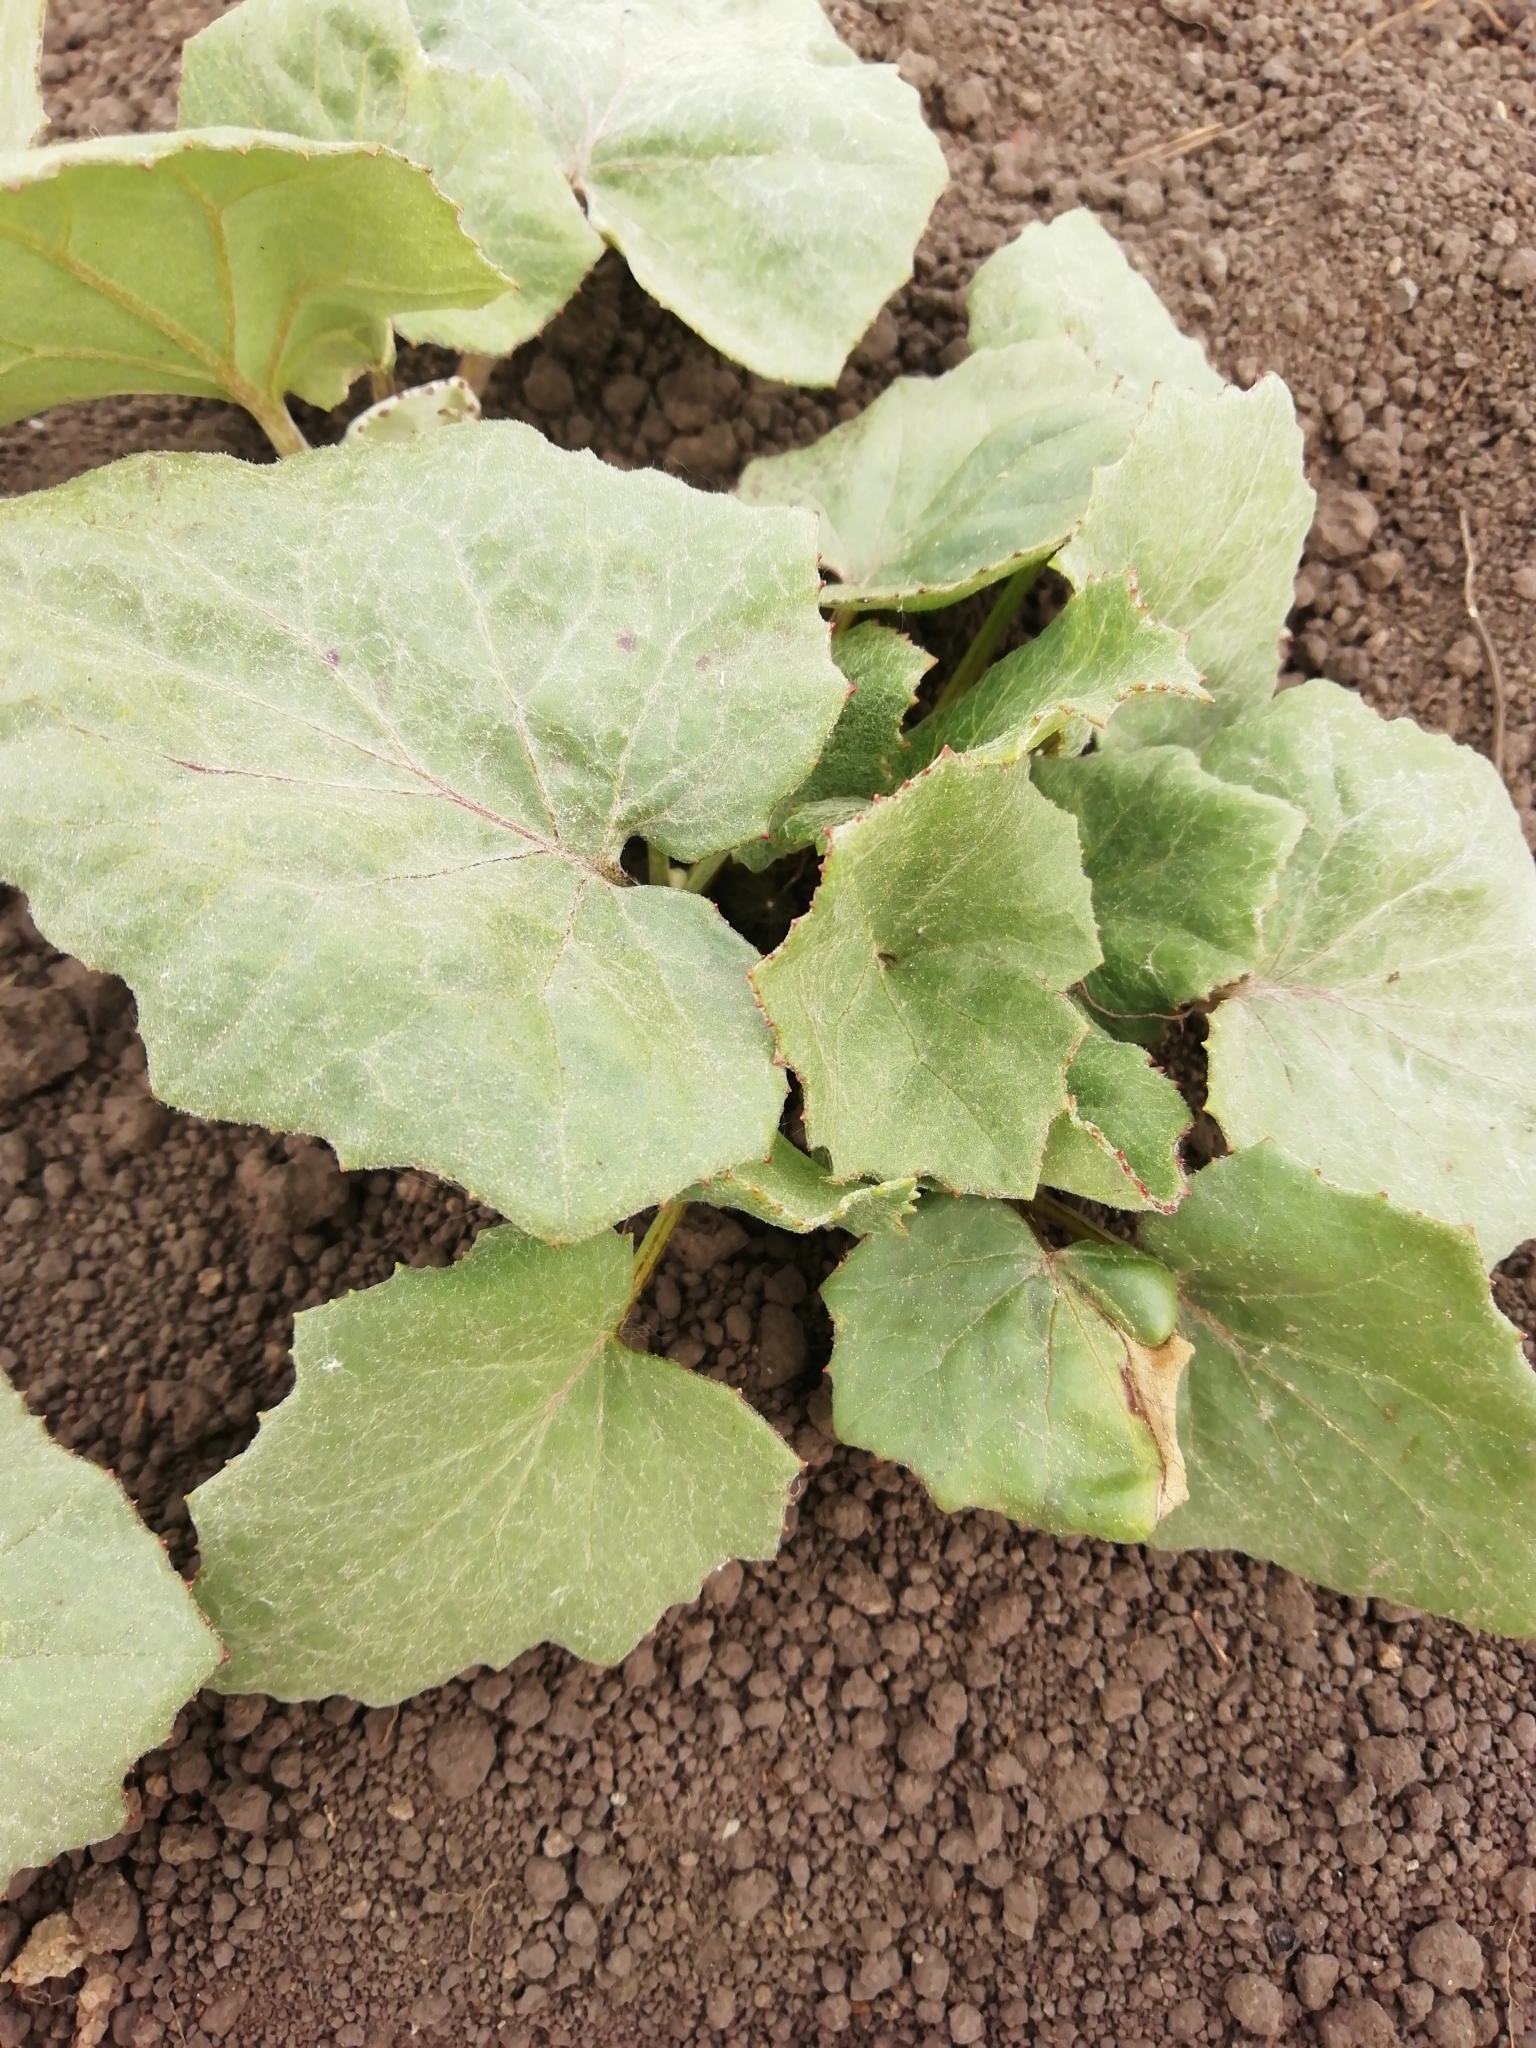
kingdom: Plantae
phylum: Tracheophyta
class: Magnoliopsida
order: Asterales
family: Asteraceae
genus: Tussilago
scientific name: Tussilago farfara
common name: Coltsfoot
